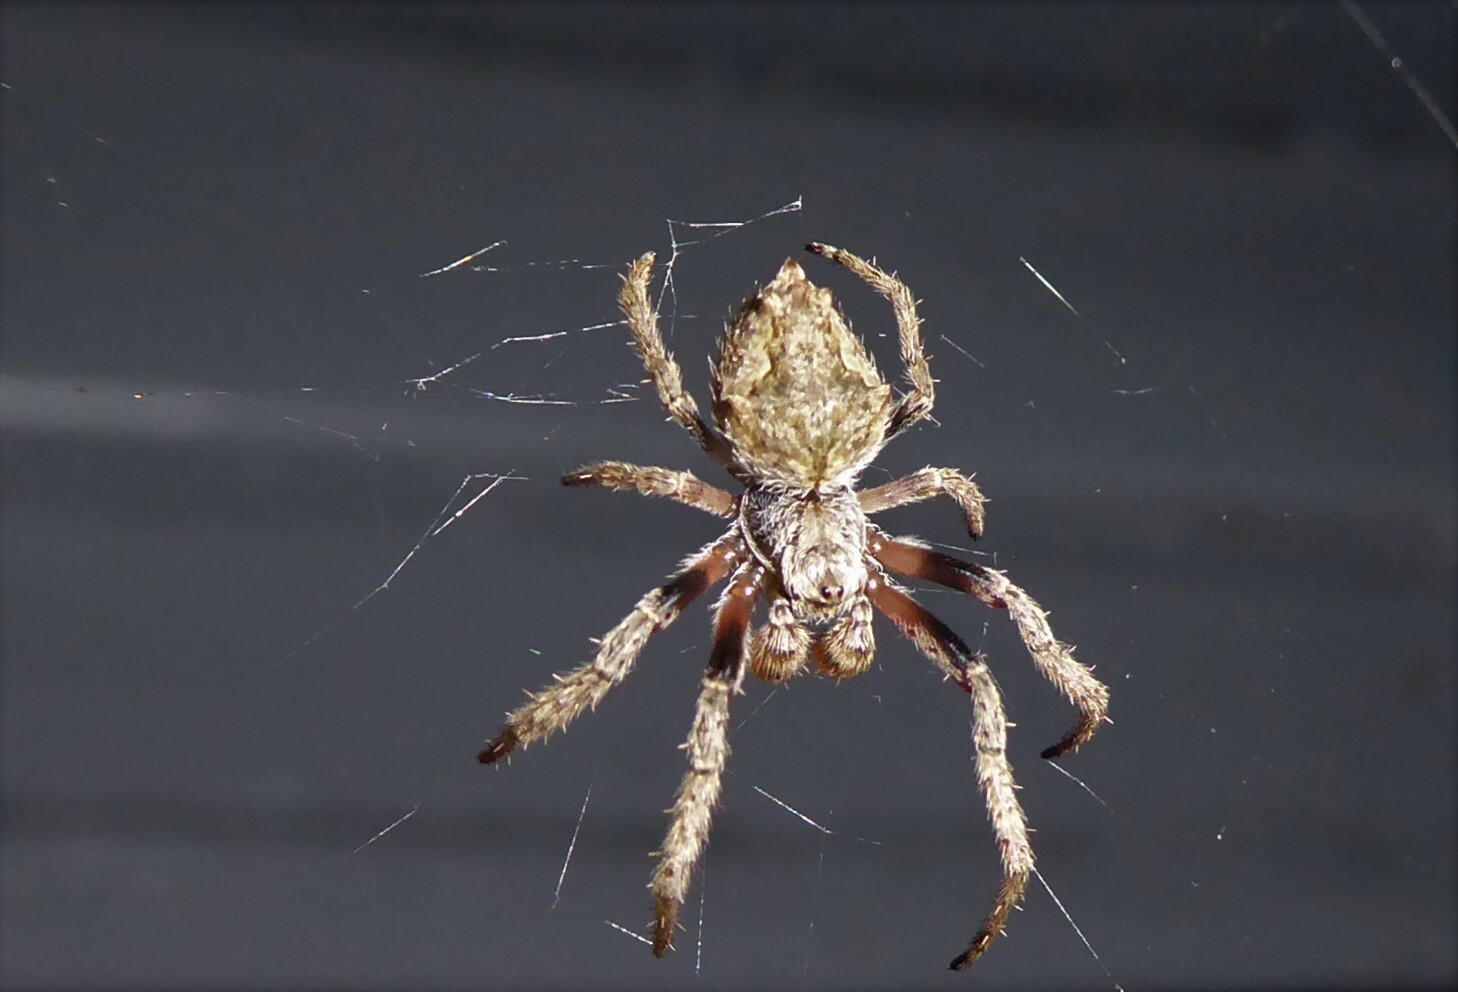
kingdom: Animalia
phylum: Arthropoda
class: Arachnida
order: Araneae
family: Araneidae
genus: Eriophora
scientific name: Eriophora pustulosa
